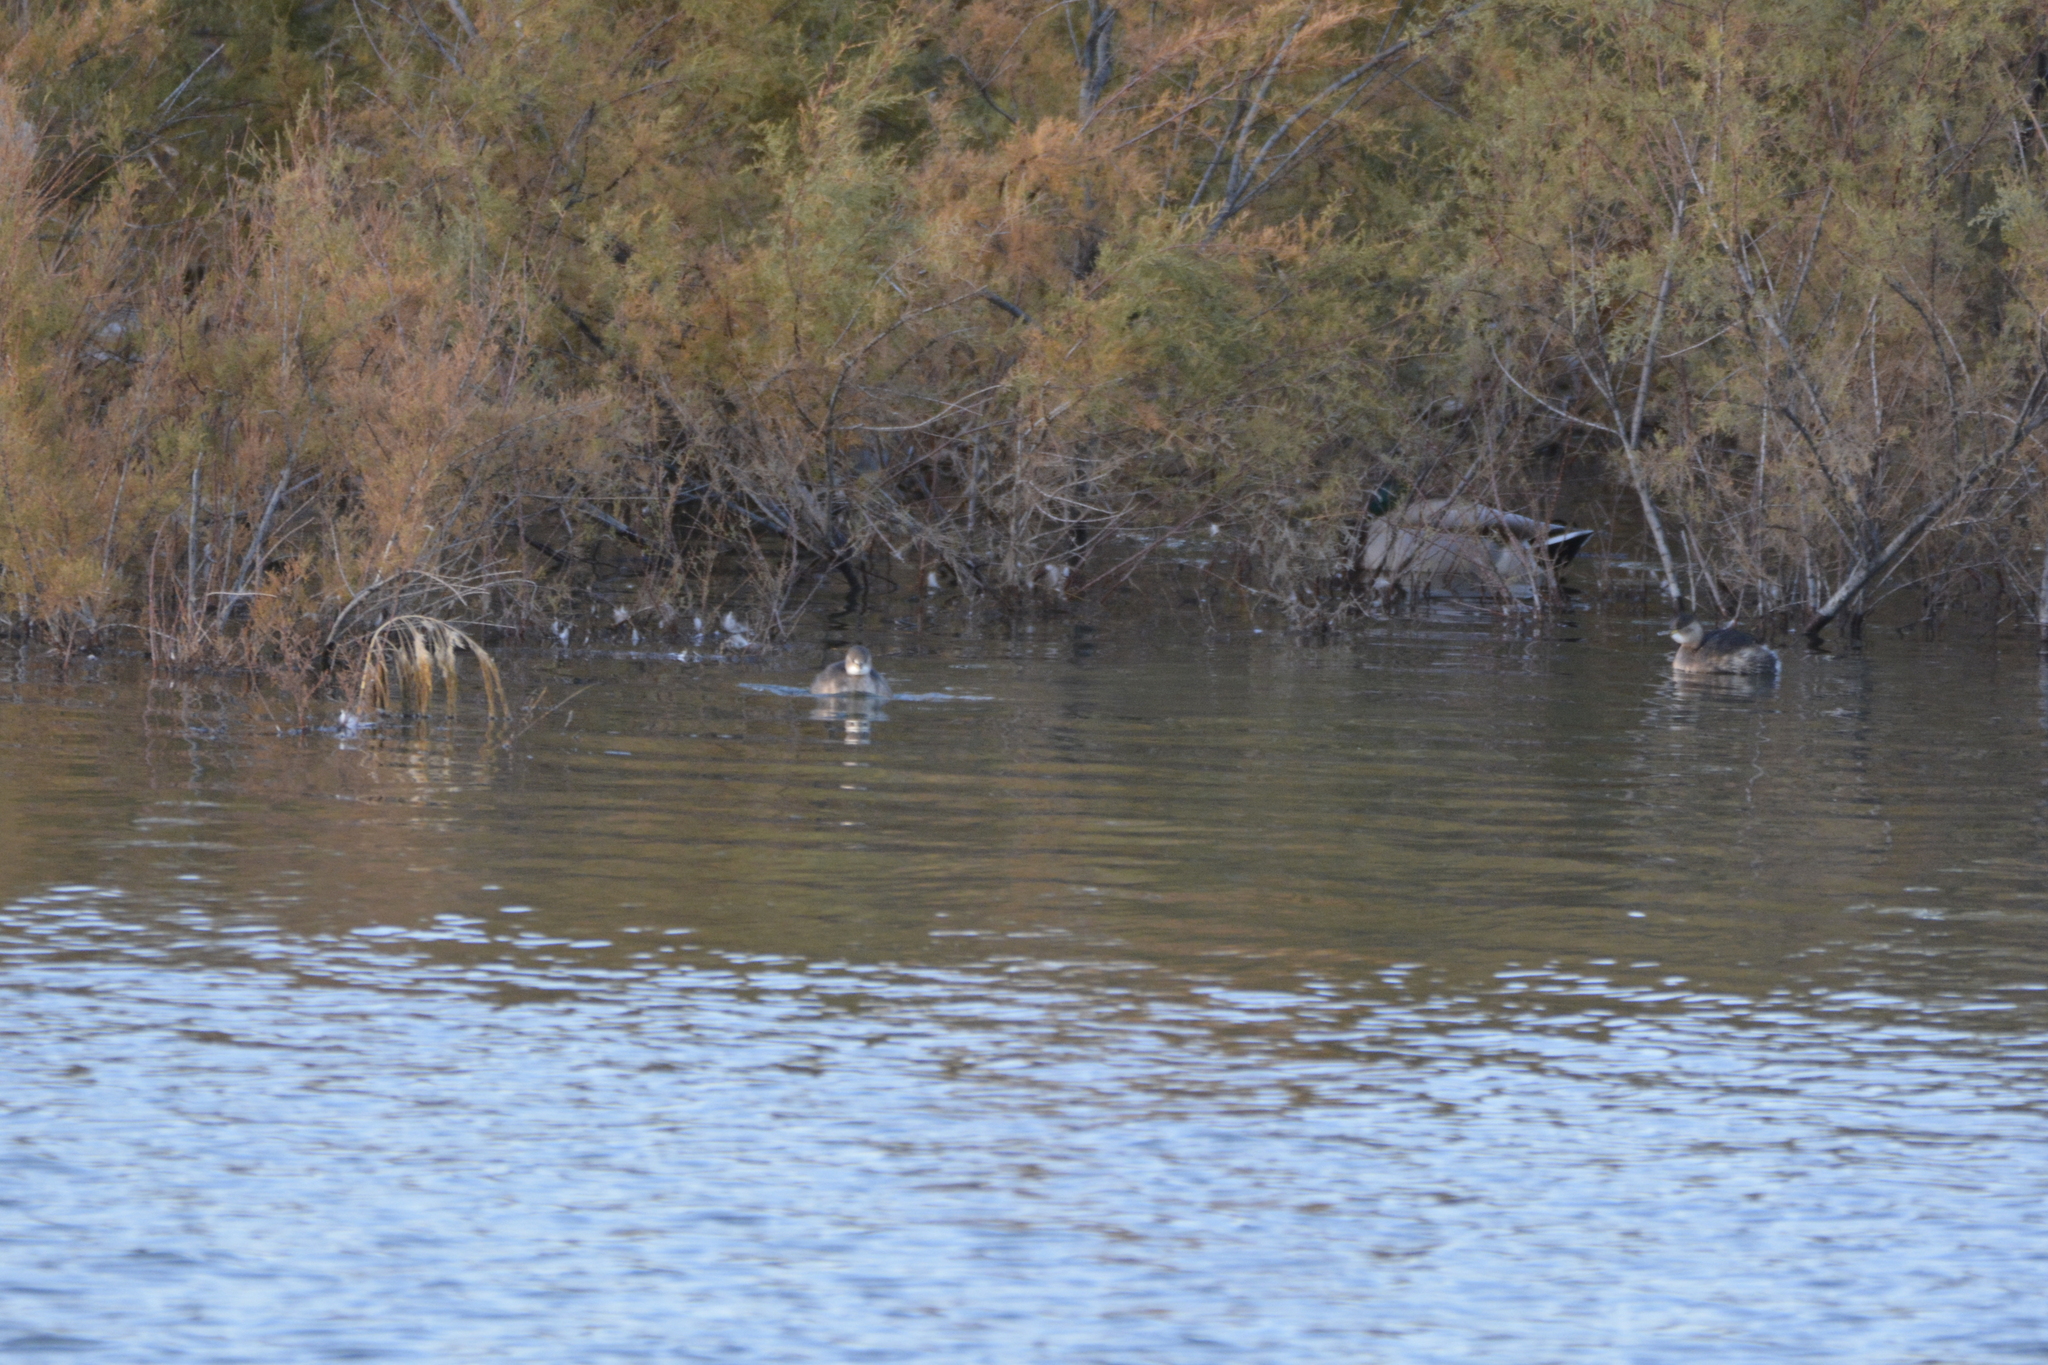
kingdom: Animalia
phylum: Chordata
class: Aves
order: Podicipediformes
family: Podicipedidae
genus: Podiceps
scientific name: Podiceps nigricollis
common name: Black-necked grebe
